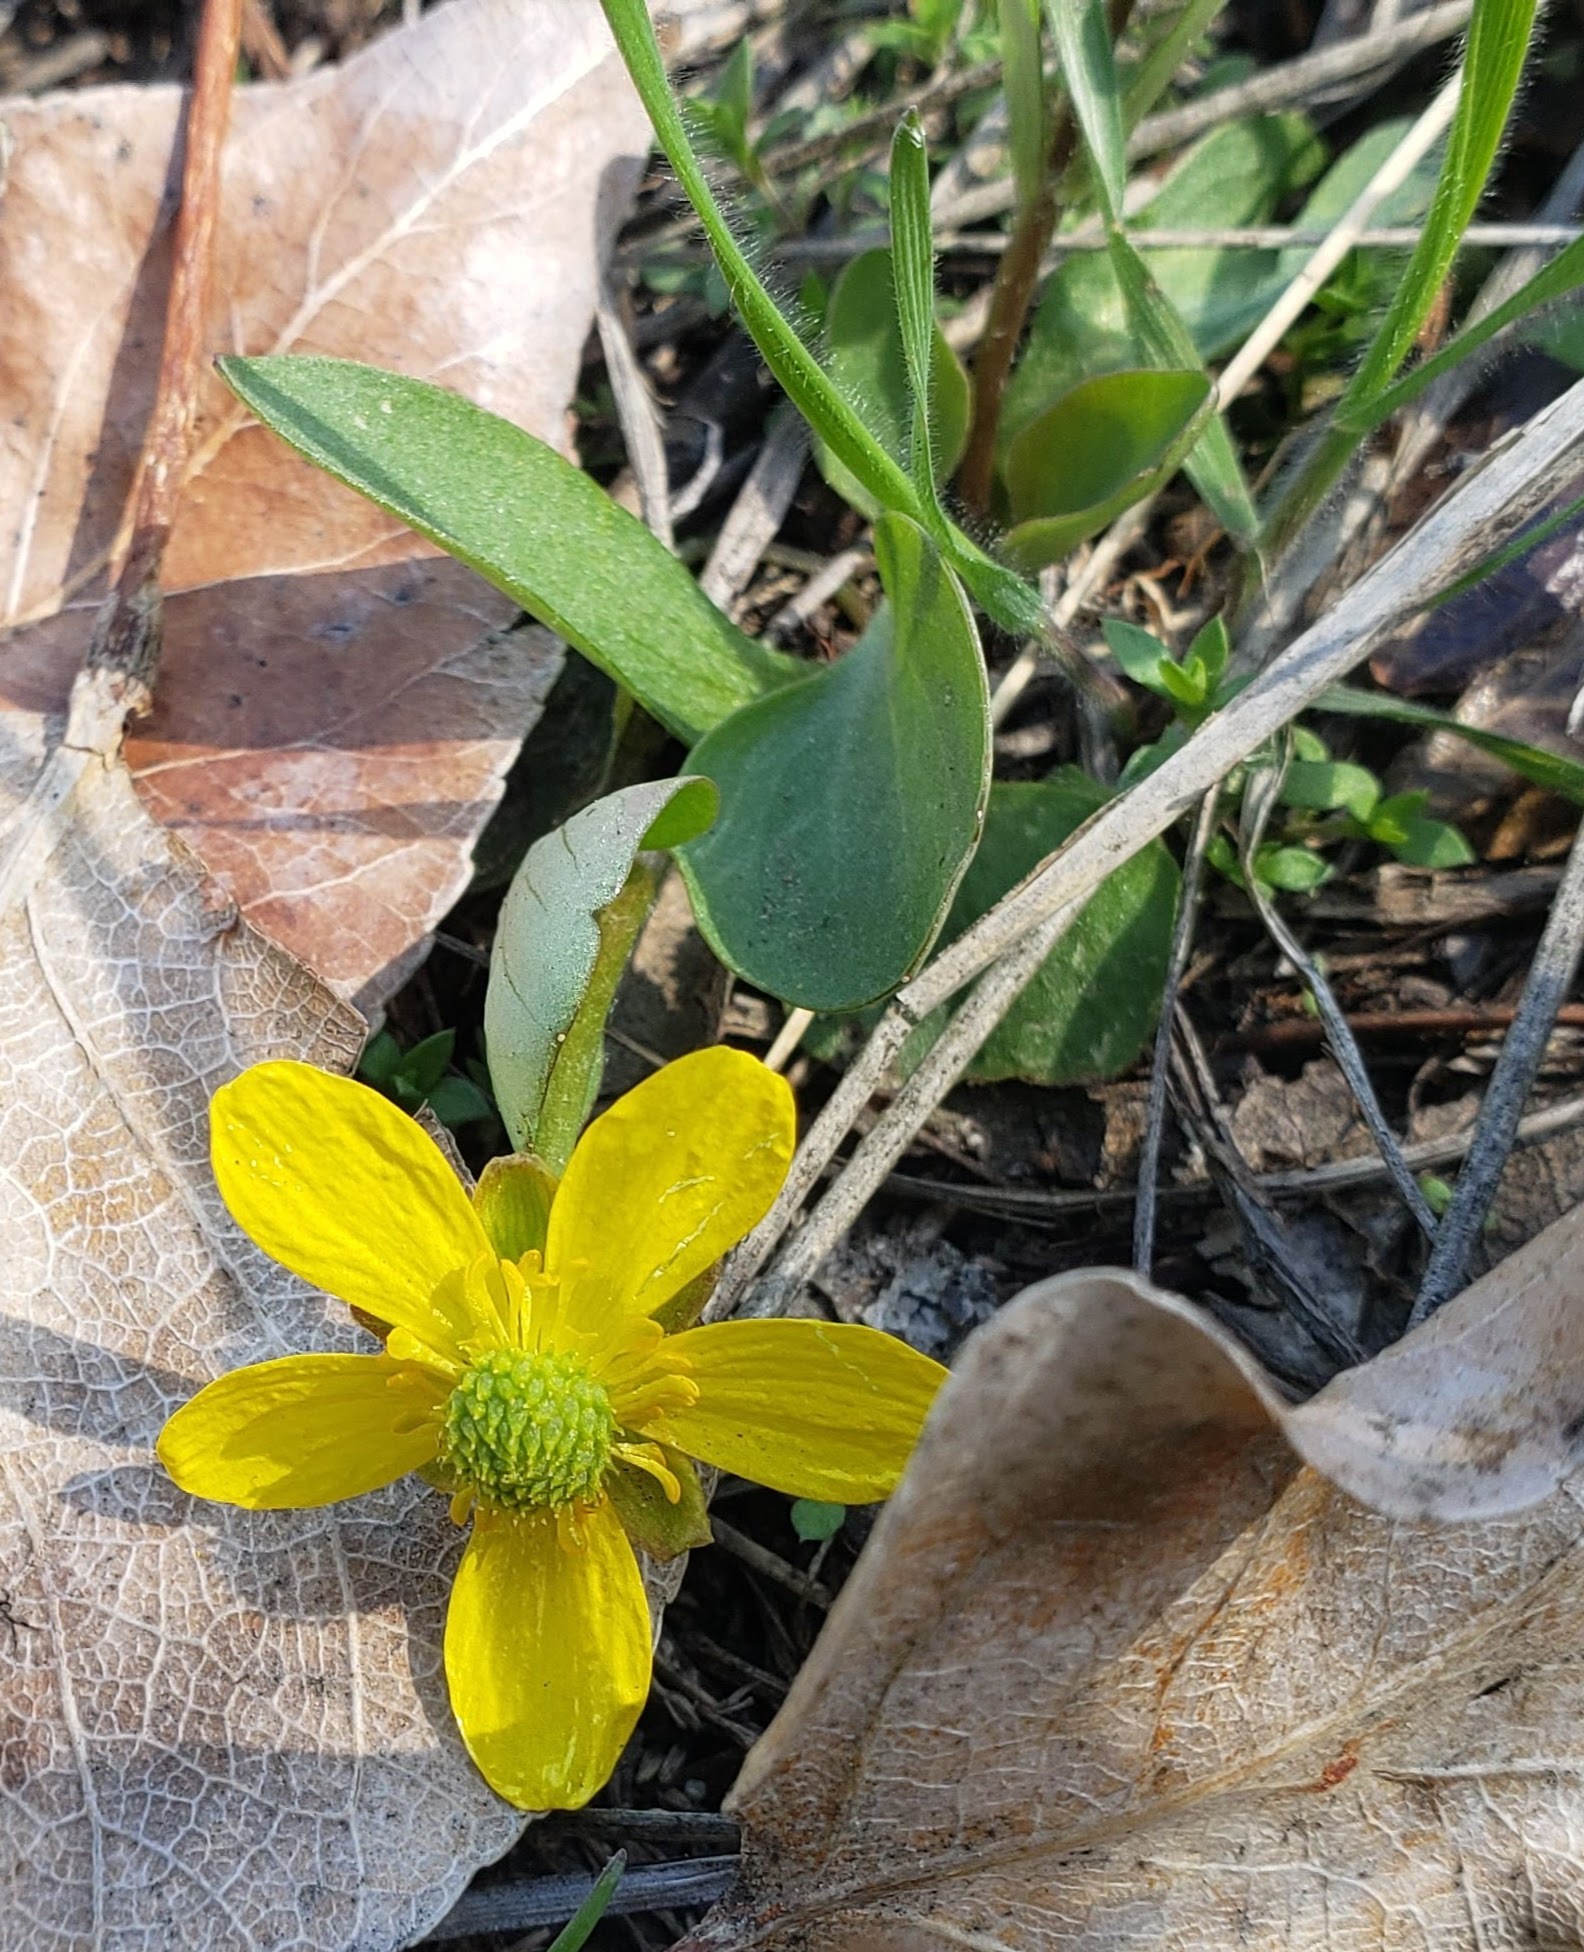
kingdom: Plantae
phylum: Tracheophyta
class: Magnoliopsida
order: Ranunculales
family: Ranunculaceae
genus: Ranunculus
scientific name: Ranunculus glaberrimus
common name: Sagebrush buttercup
